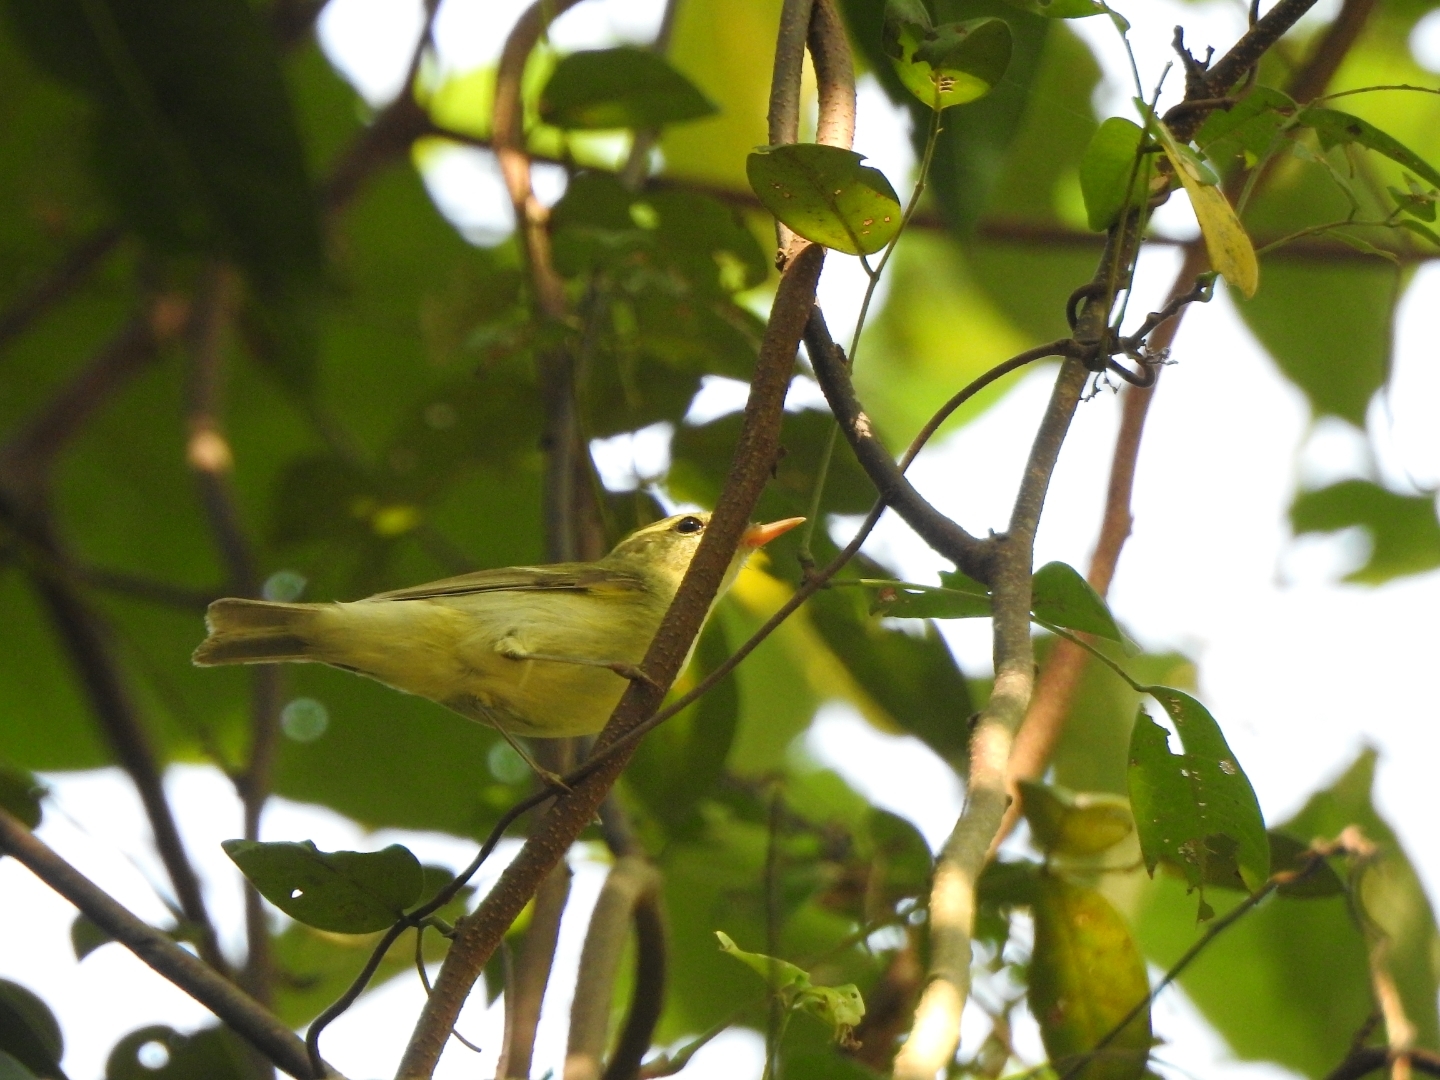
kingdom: Animalia
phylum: Chordata
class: Aves
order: Passeriformes
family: Phylloscopidae
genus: Phylloscopus
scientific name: Phylloscopus trochiloides
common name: Greenish warbler
